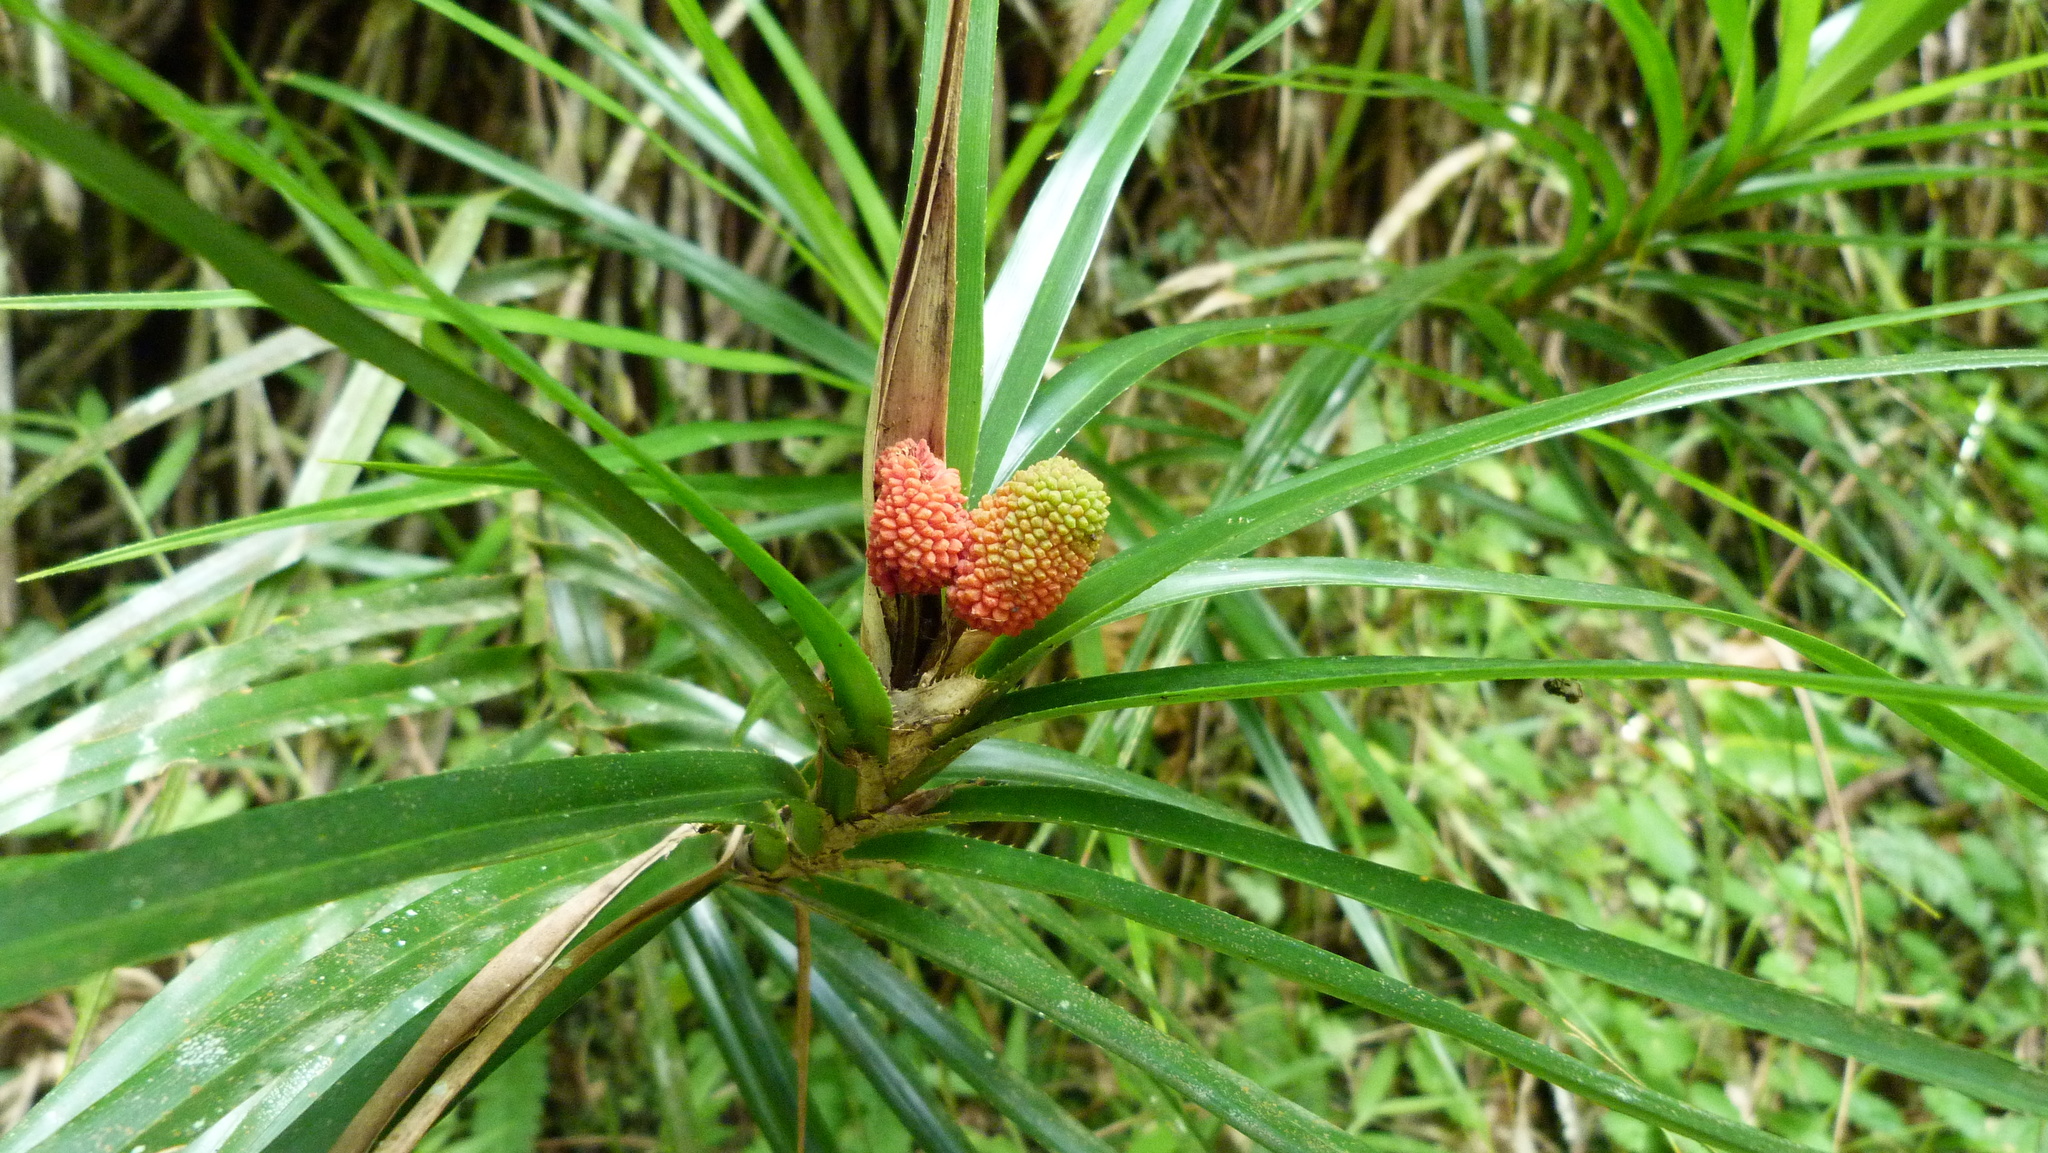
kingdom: Plantae
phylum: Tracheophyta
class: Liliopsida
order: Pandanales
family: Pandanaceae
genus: Freycinetia
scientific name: Freycinetia excelsa
